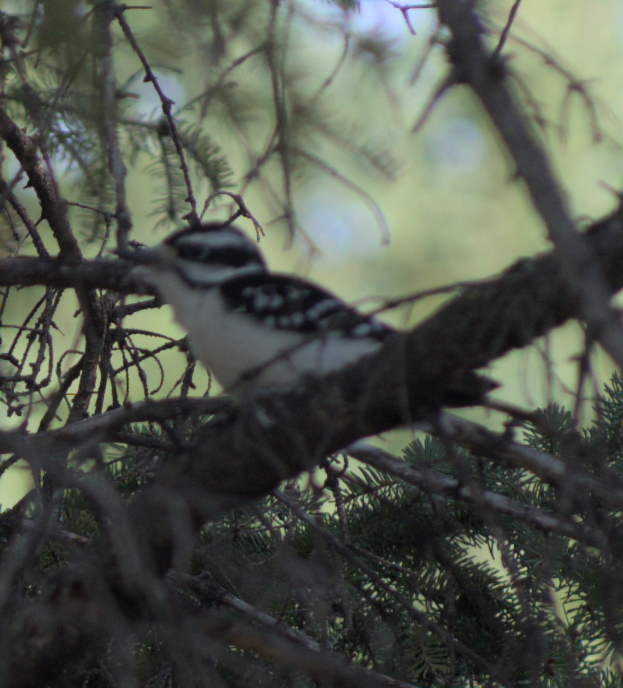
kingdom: Animalia
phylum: Chordata
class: Aves
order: Piciformes
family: Picidae
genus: Dryobates
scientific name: Dryobates pubescens
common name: Downy woodpecker
